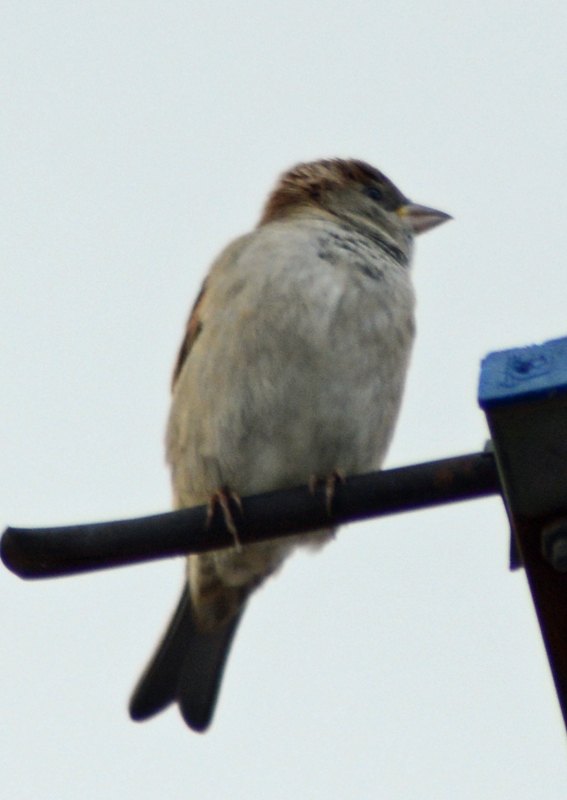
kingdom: Animalia
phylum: Chordata
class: Aves
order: Passeriformes
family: Passeridae
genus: Passer
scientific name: Passer domesticus
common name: House sparrow
